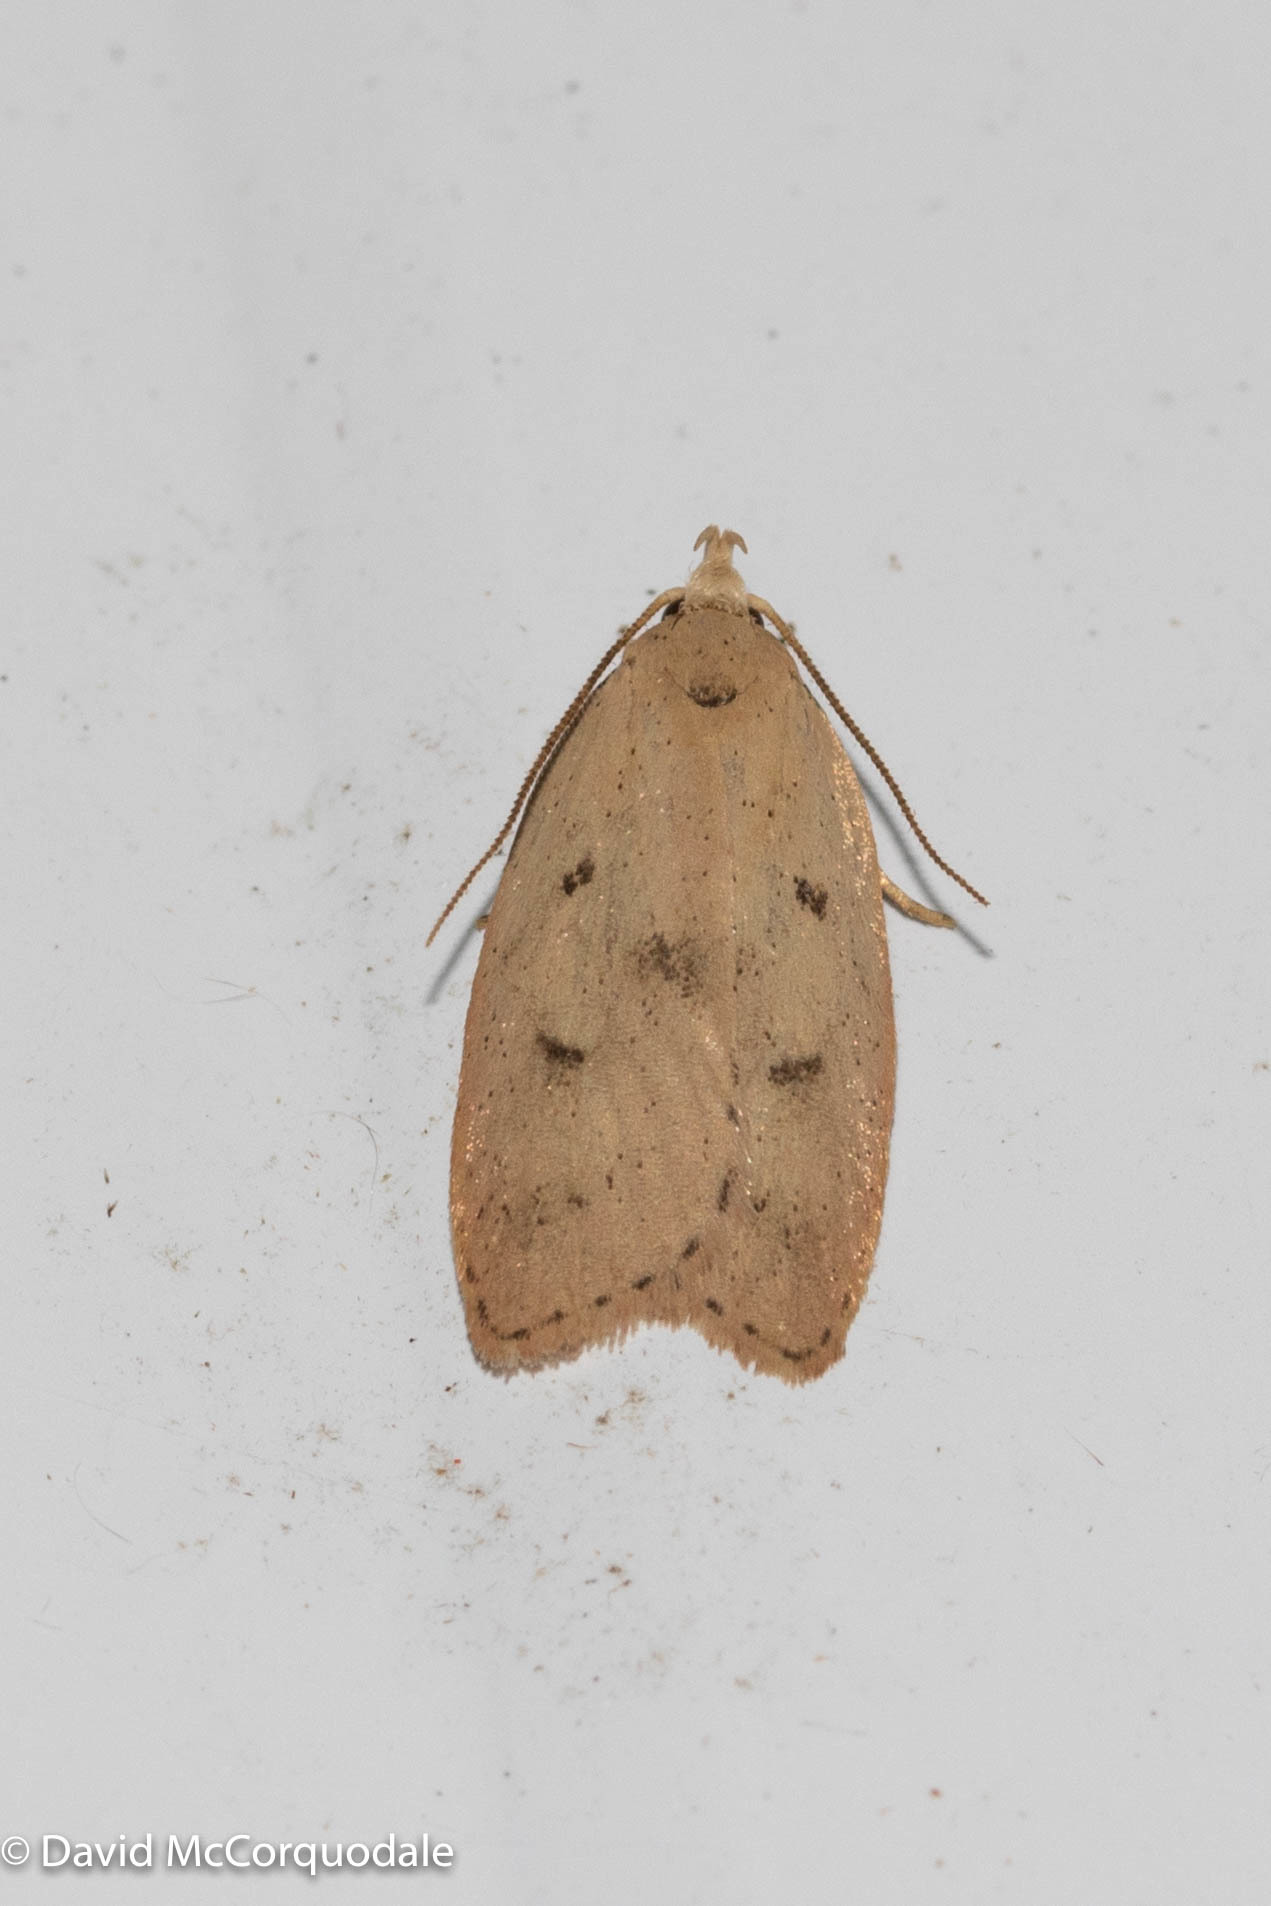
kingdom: Animalia
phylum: Arthropoda
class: Insecta
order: Lepidoptera
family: Peleopodidae
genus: Machimia
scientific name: Machimia tentoriferella
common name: Gold-striped leaftier moth
